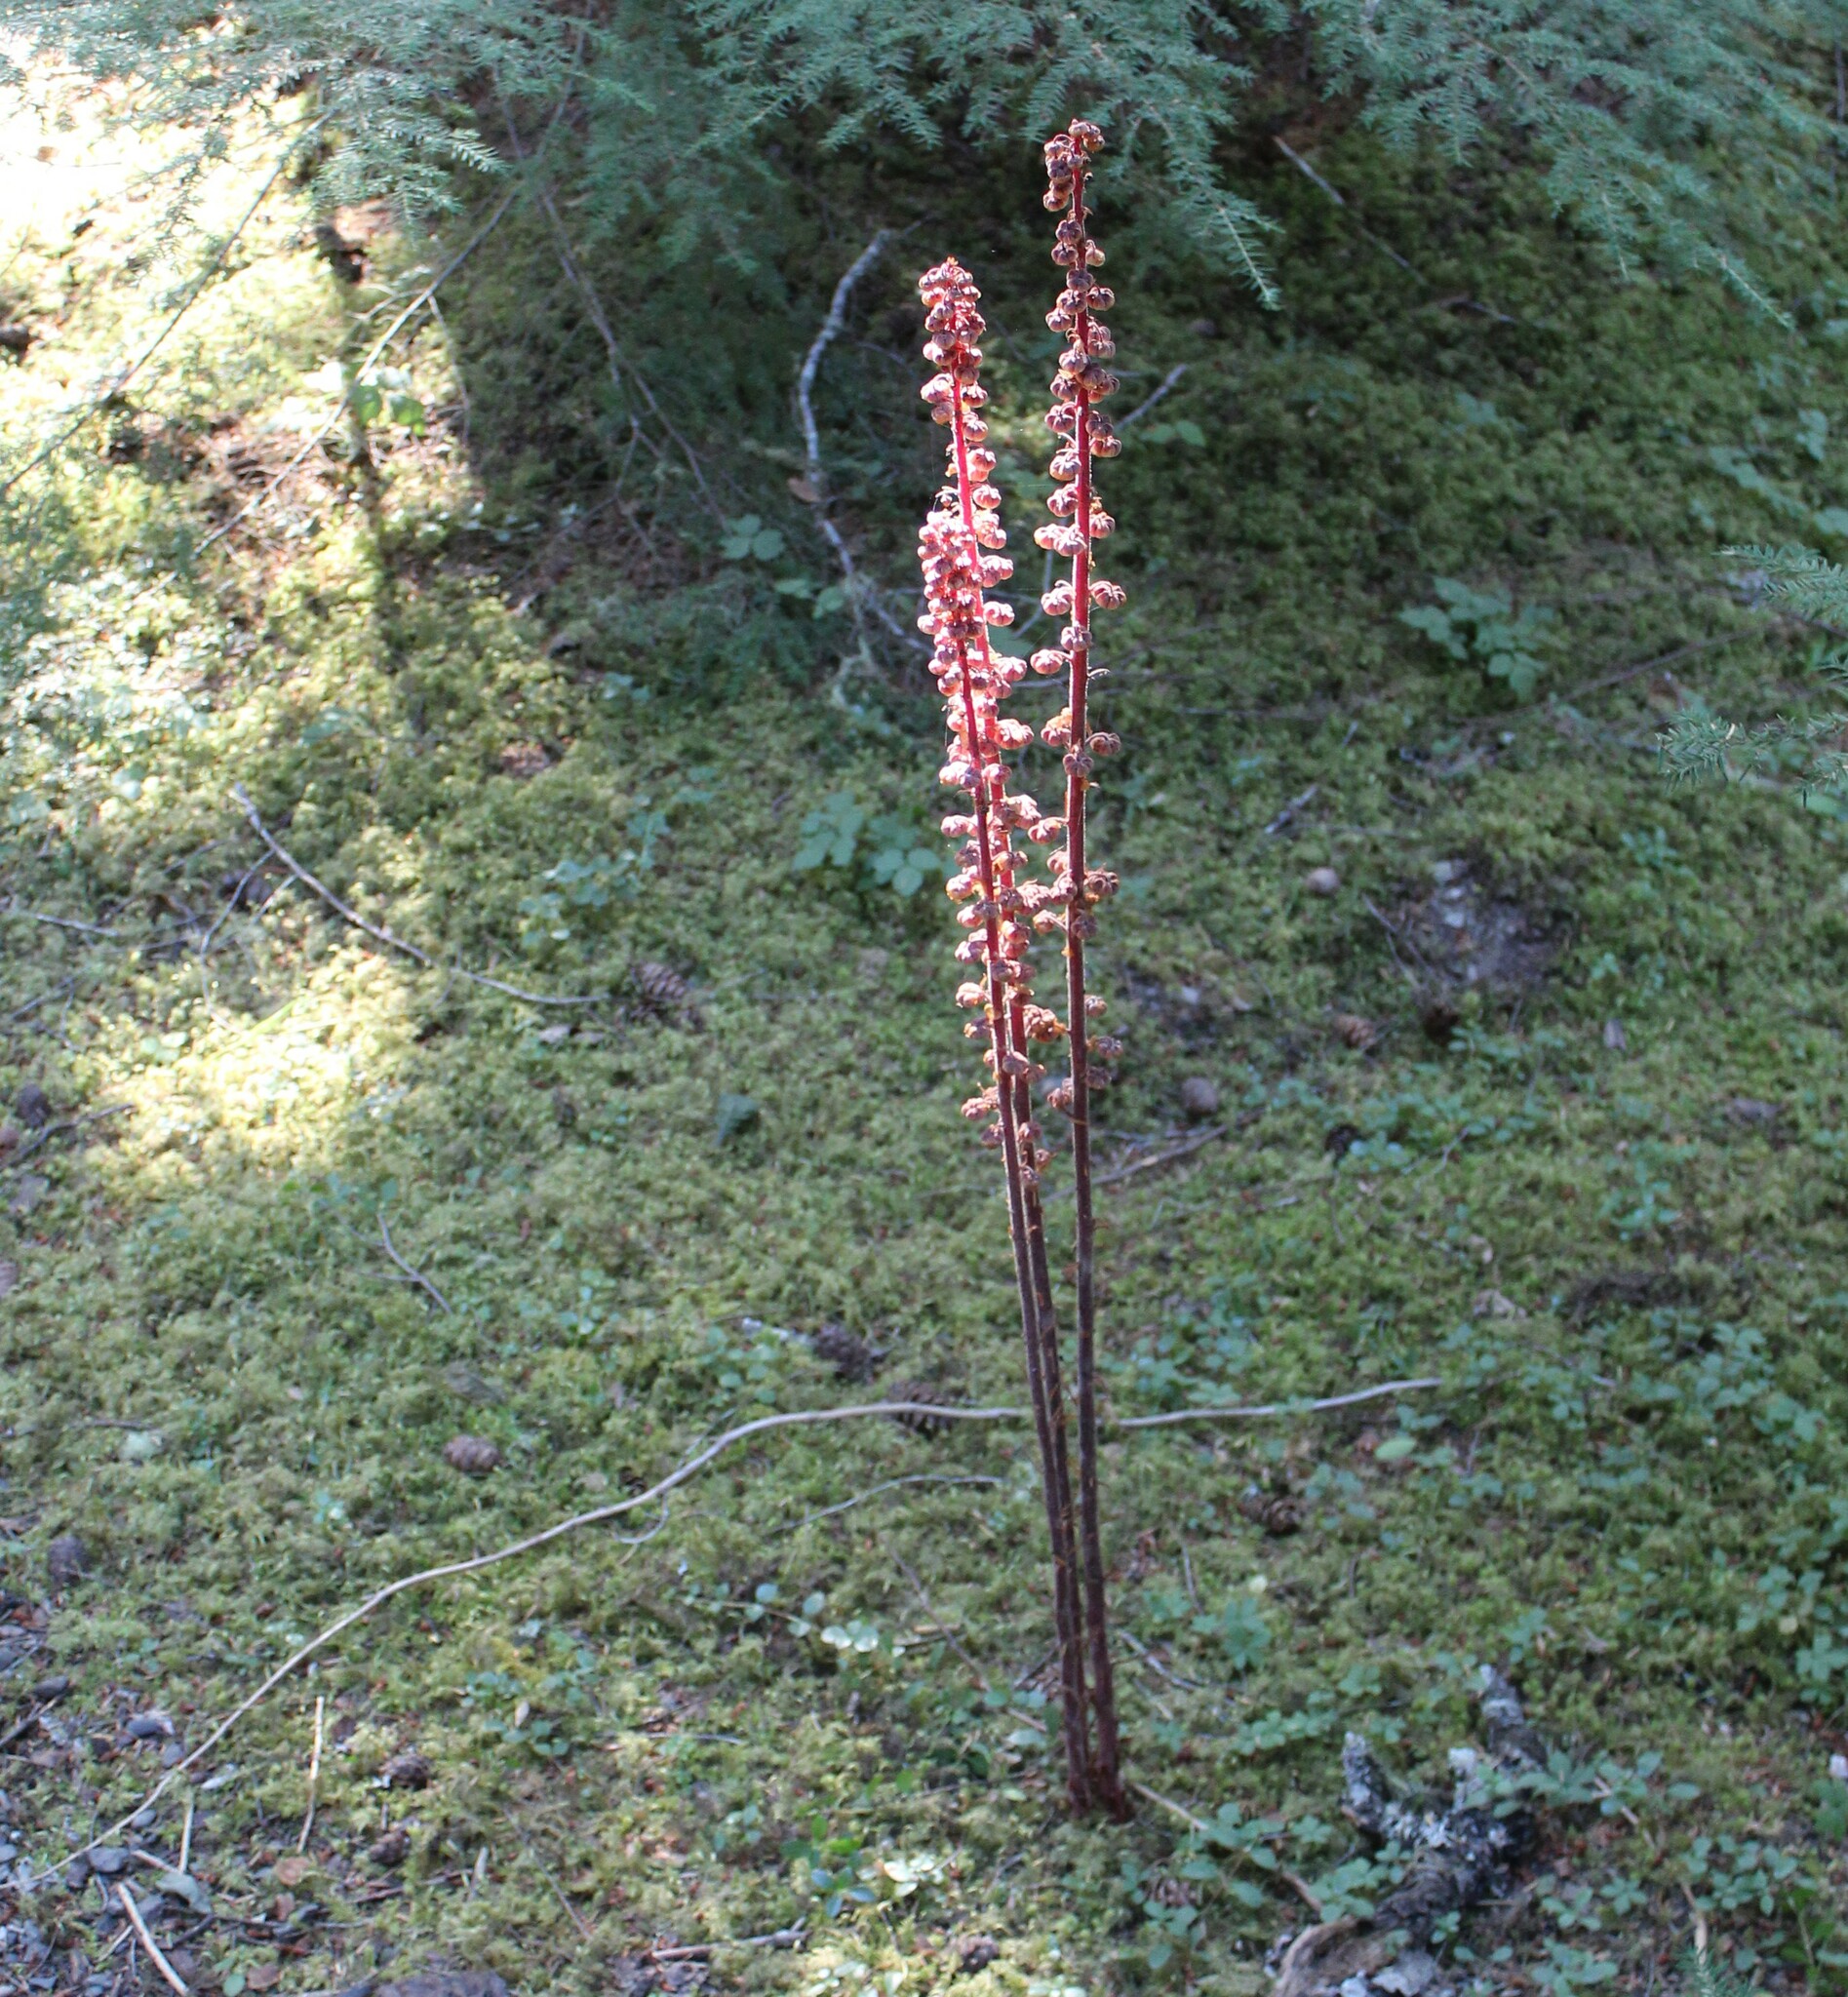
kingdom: Plantae
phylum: Tracheophyta
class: Magnoliopsida
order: Ericales
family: Ericaceae
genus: Pterospora
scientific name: Pterospora andromedea
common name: Giant bird's-nest
